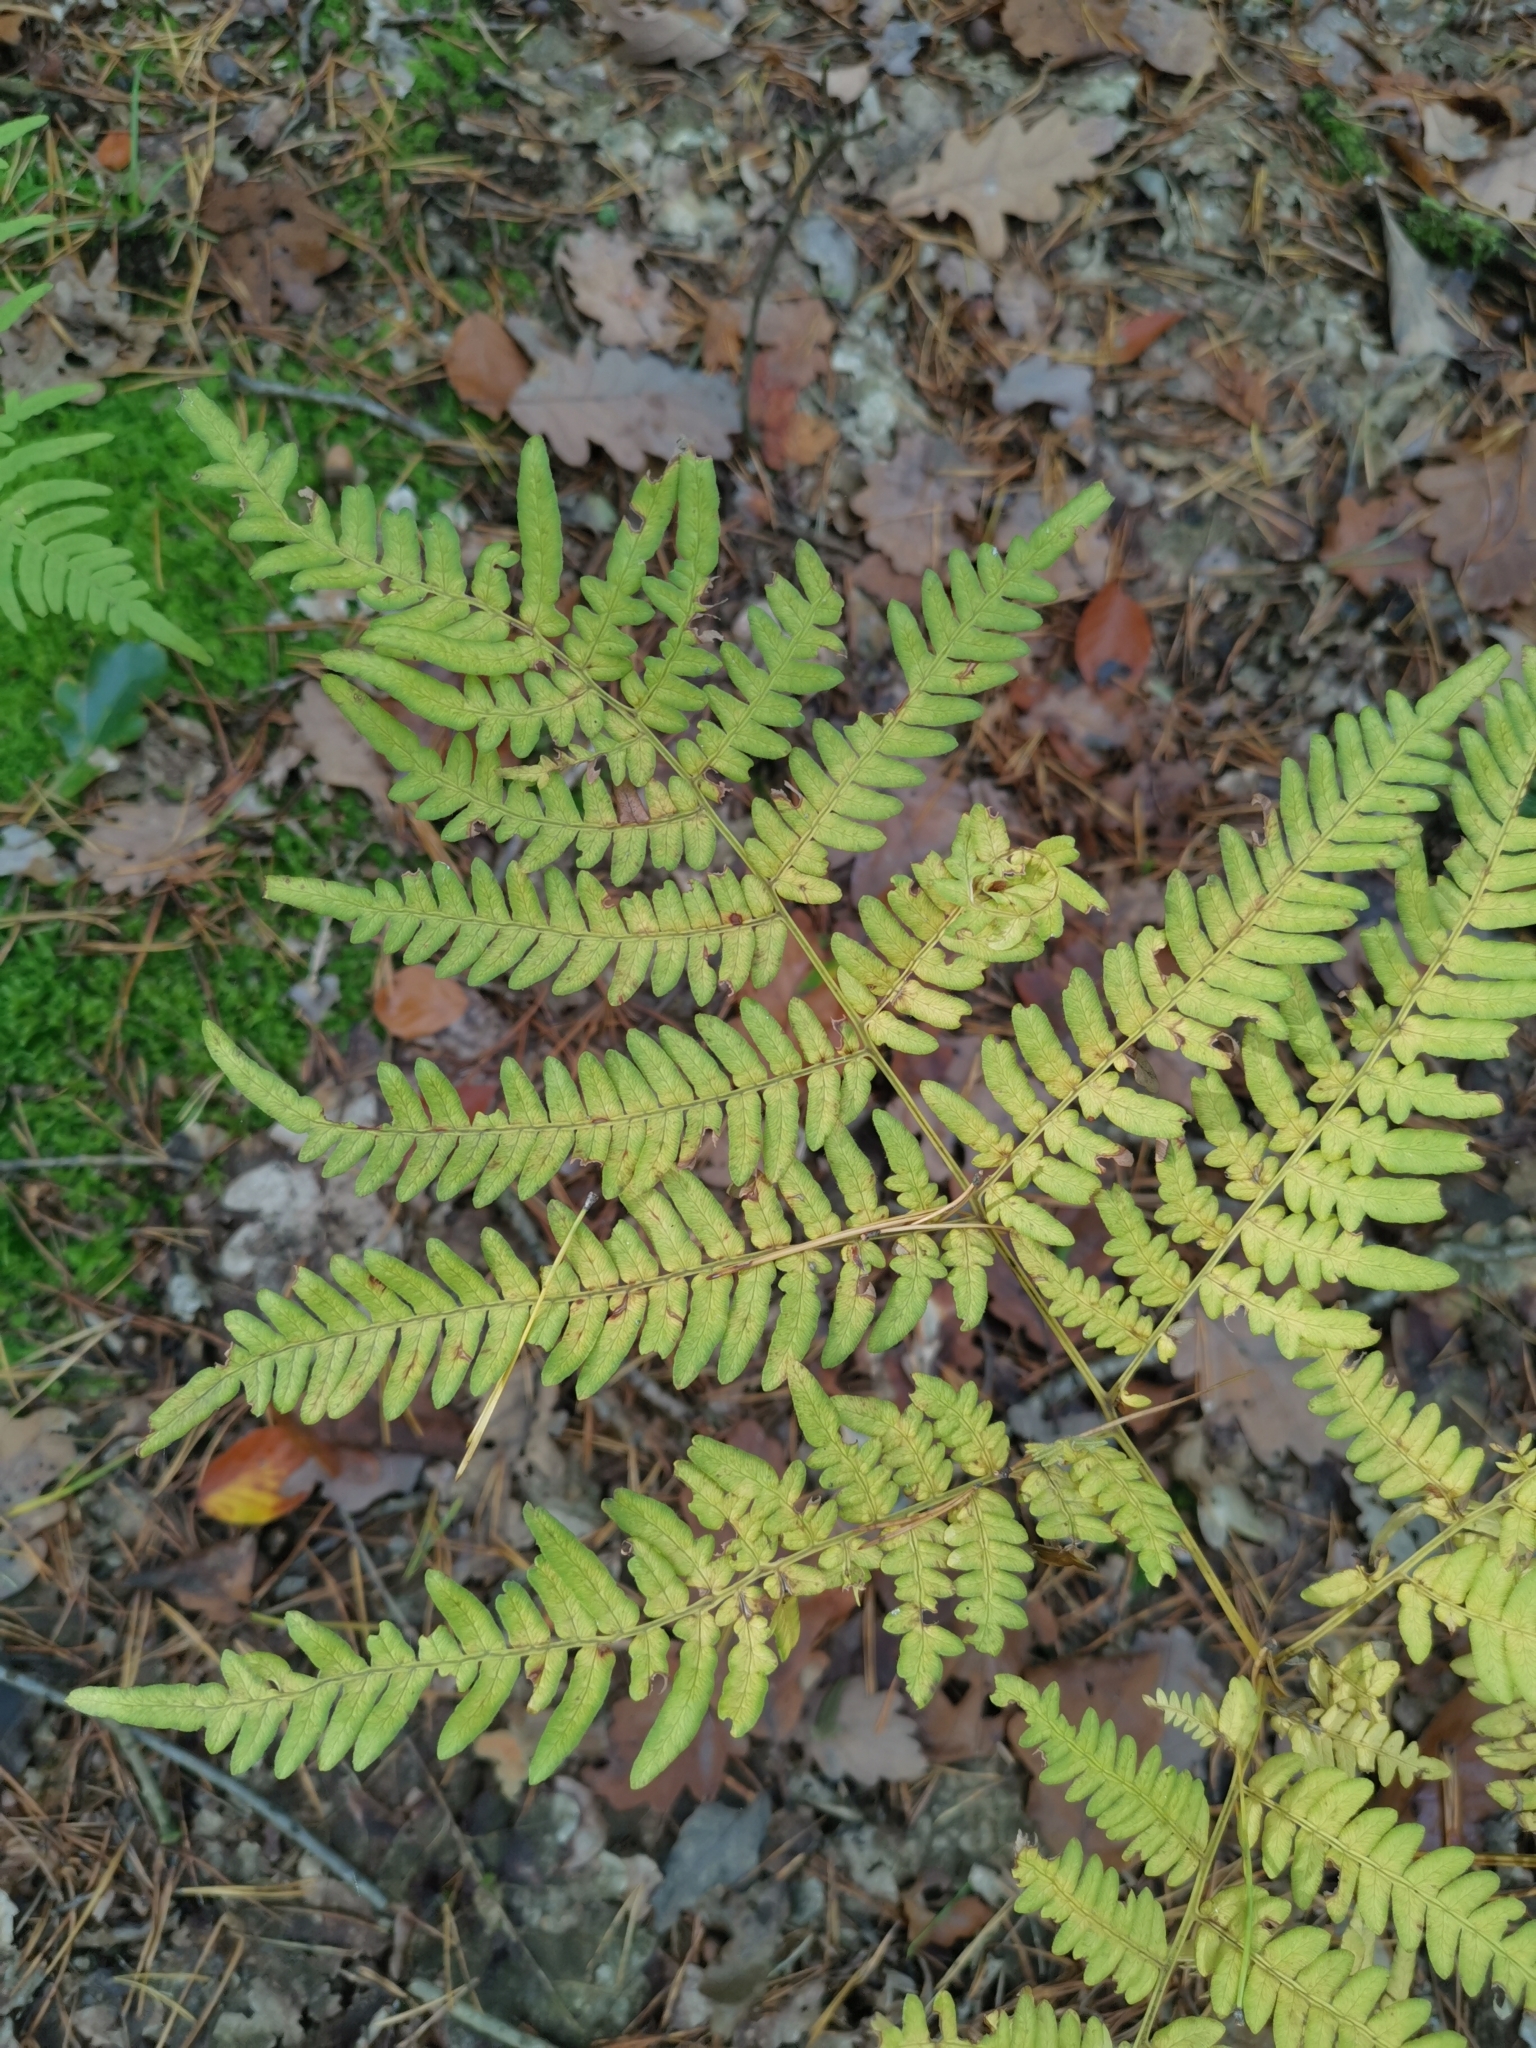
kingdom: Plantae
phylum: Tracheophyta
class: Polypodiopsida
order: Polypodiales
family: Dennstaedtiaceae
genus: Pteridium
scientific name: Pteridium aquilinum
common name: Bracken
